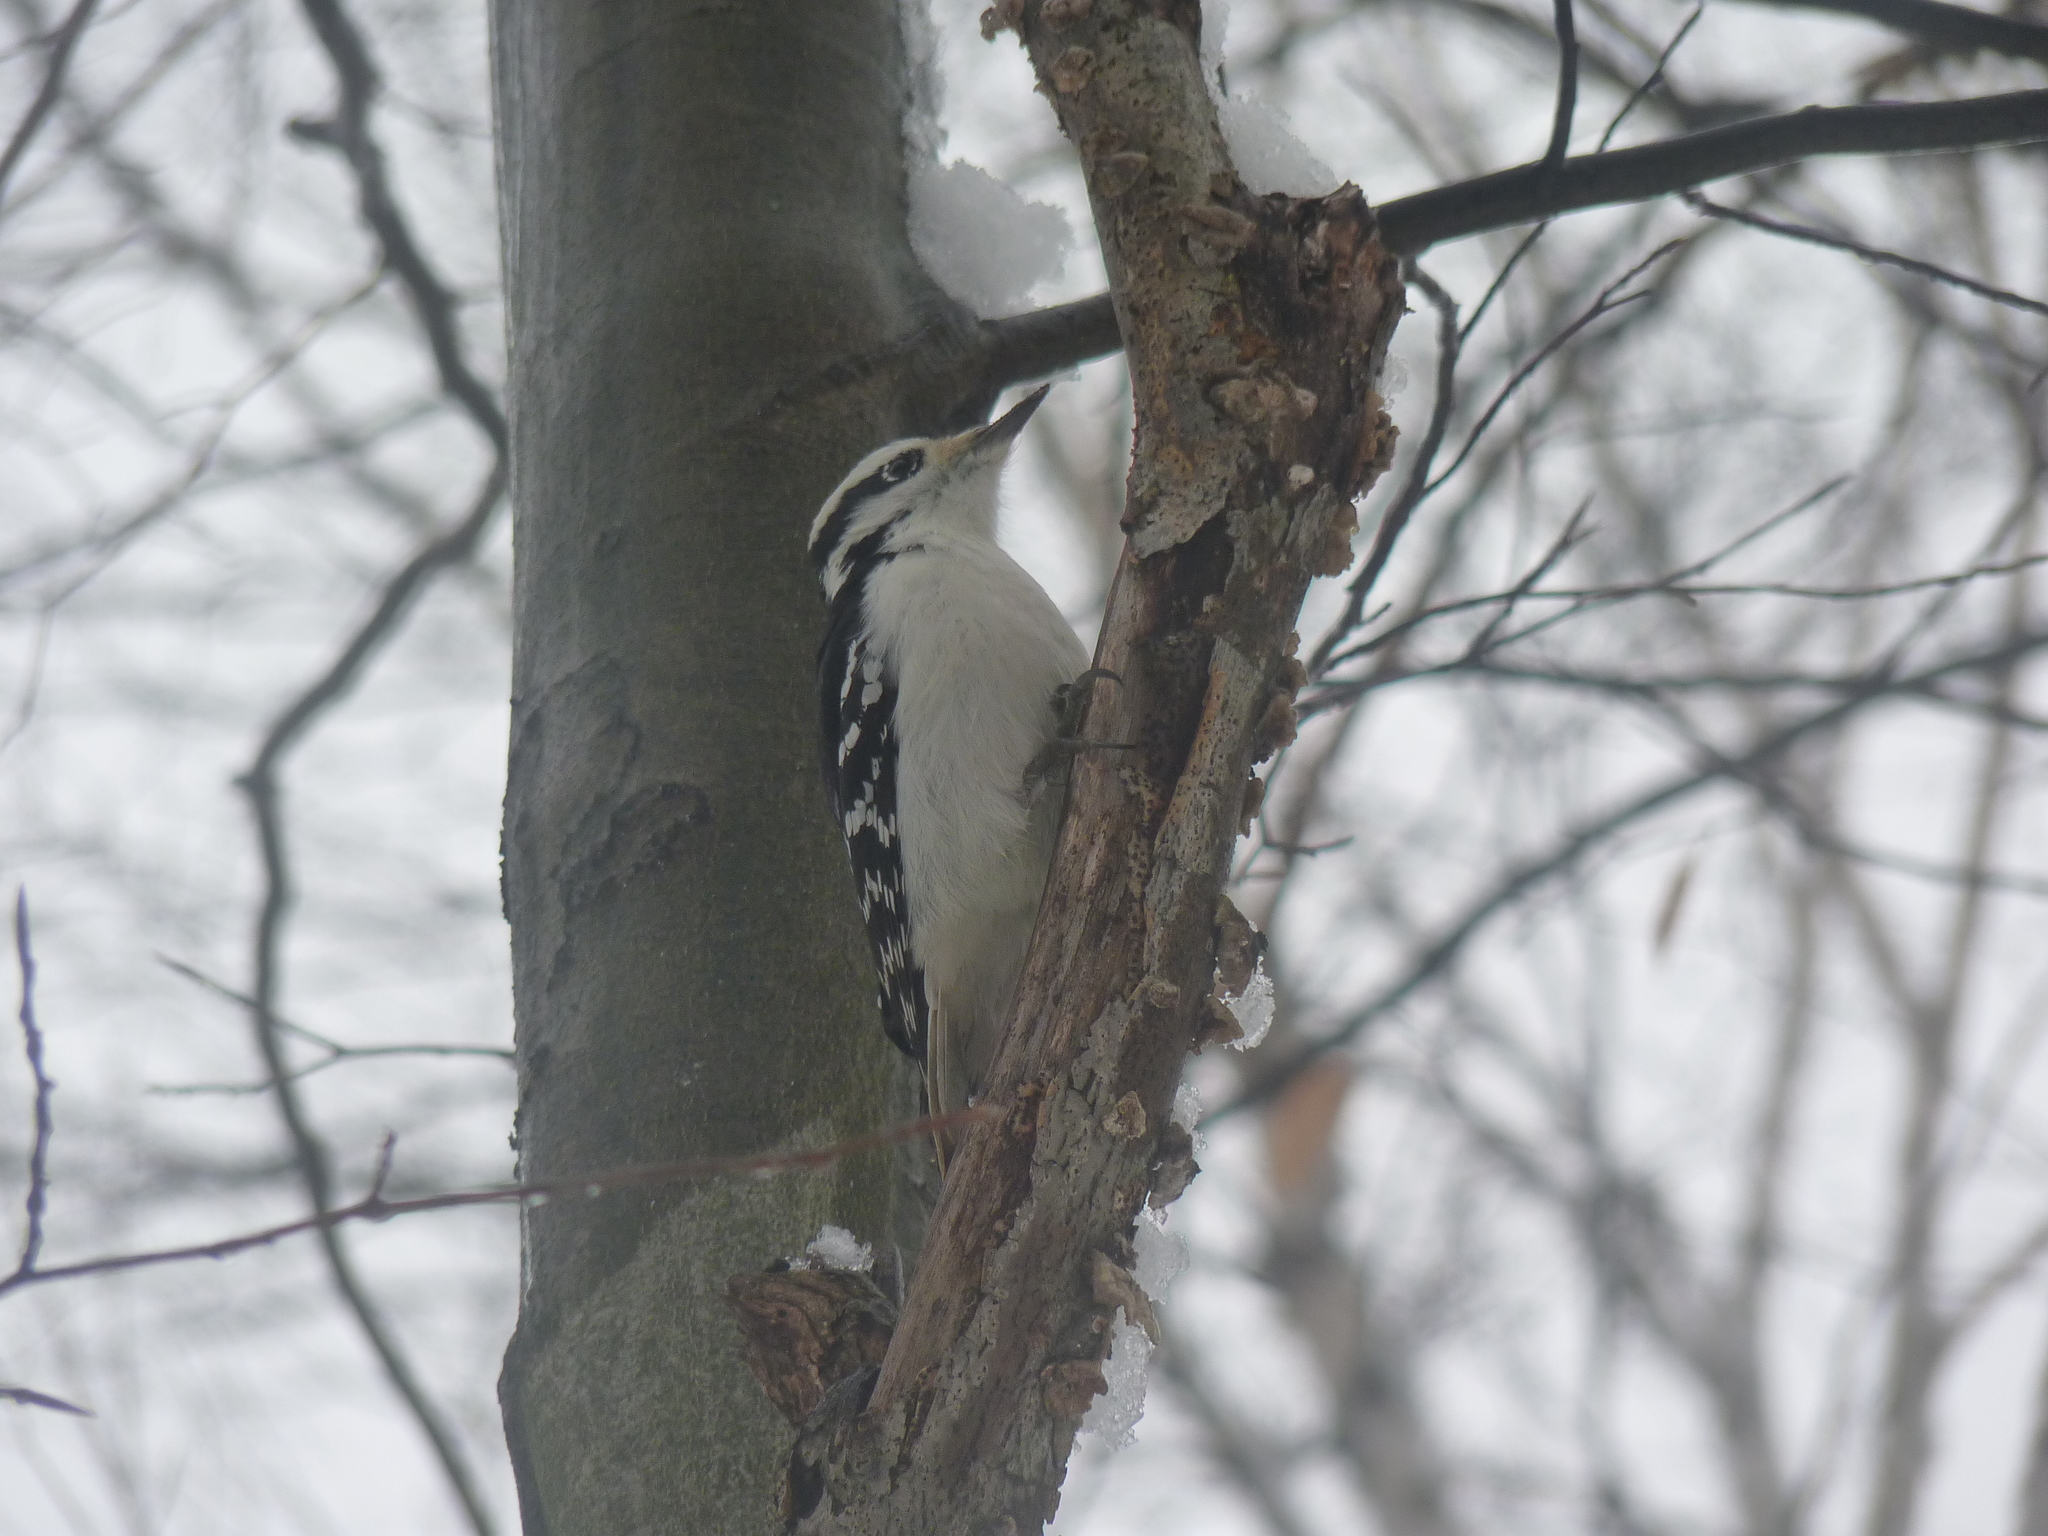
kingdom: Animalia
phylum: Chordata
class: Aves
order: Piciformes
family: Picidae
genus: Leuconotopicus
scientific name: Leuconotopicus villosus
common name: Hairy woodpecker
